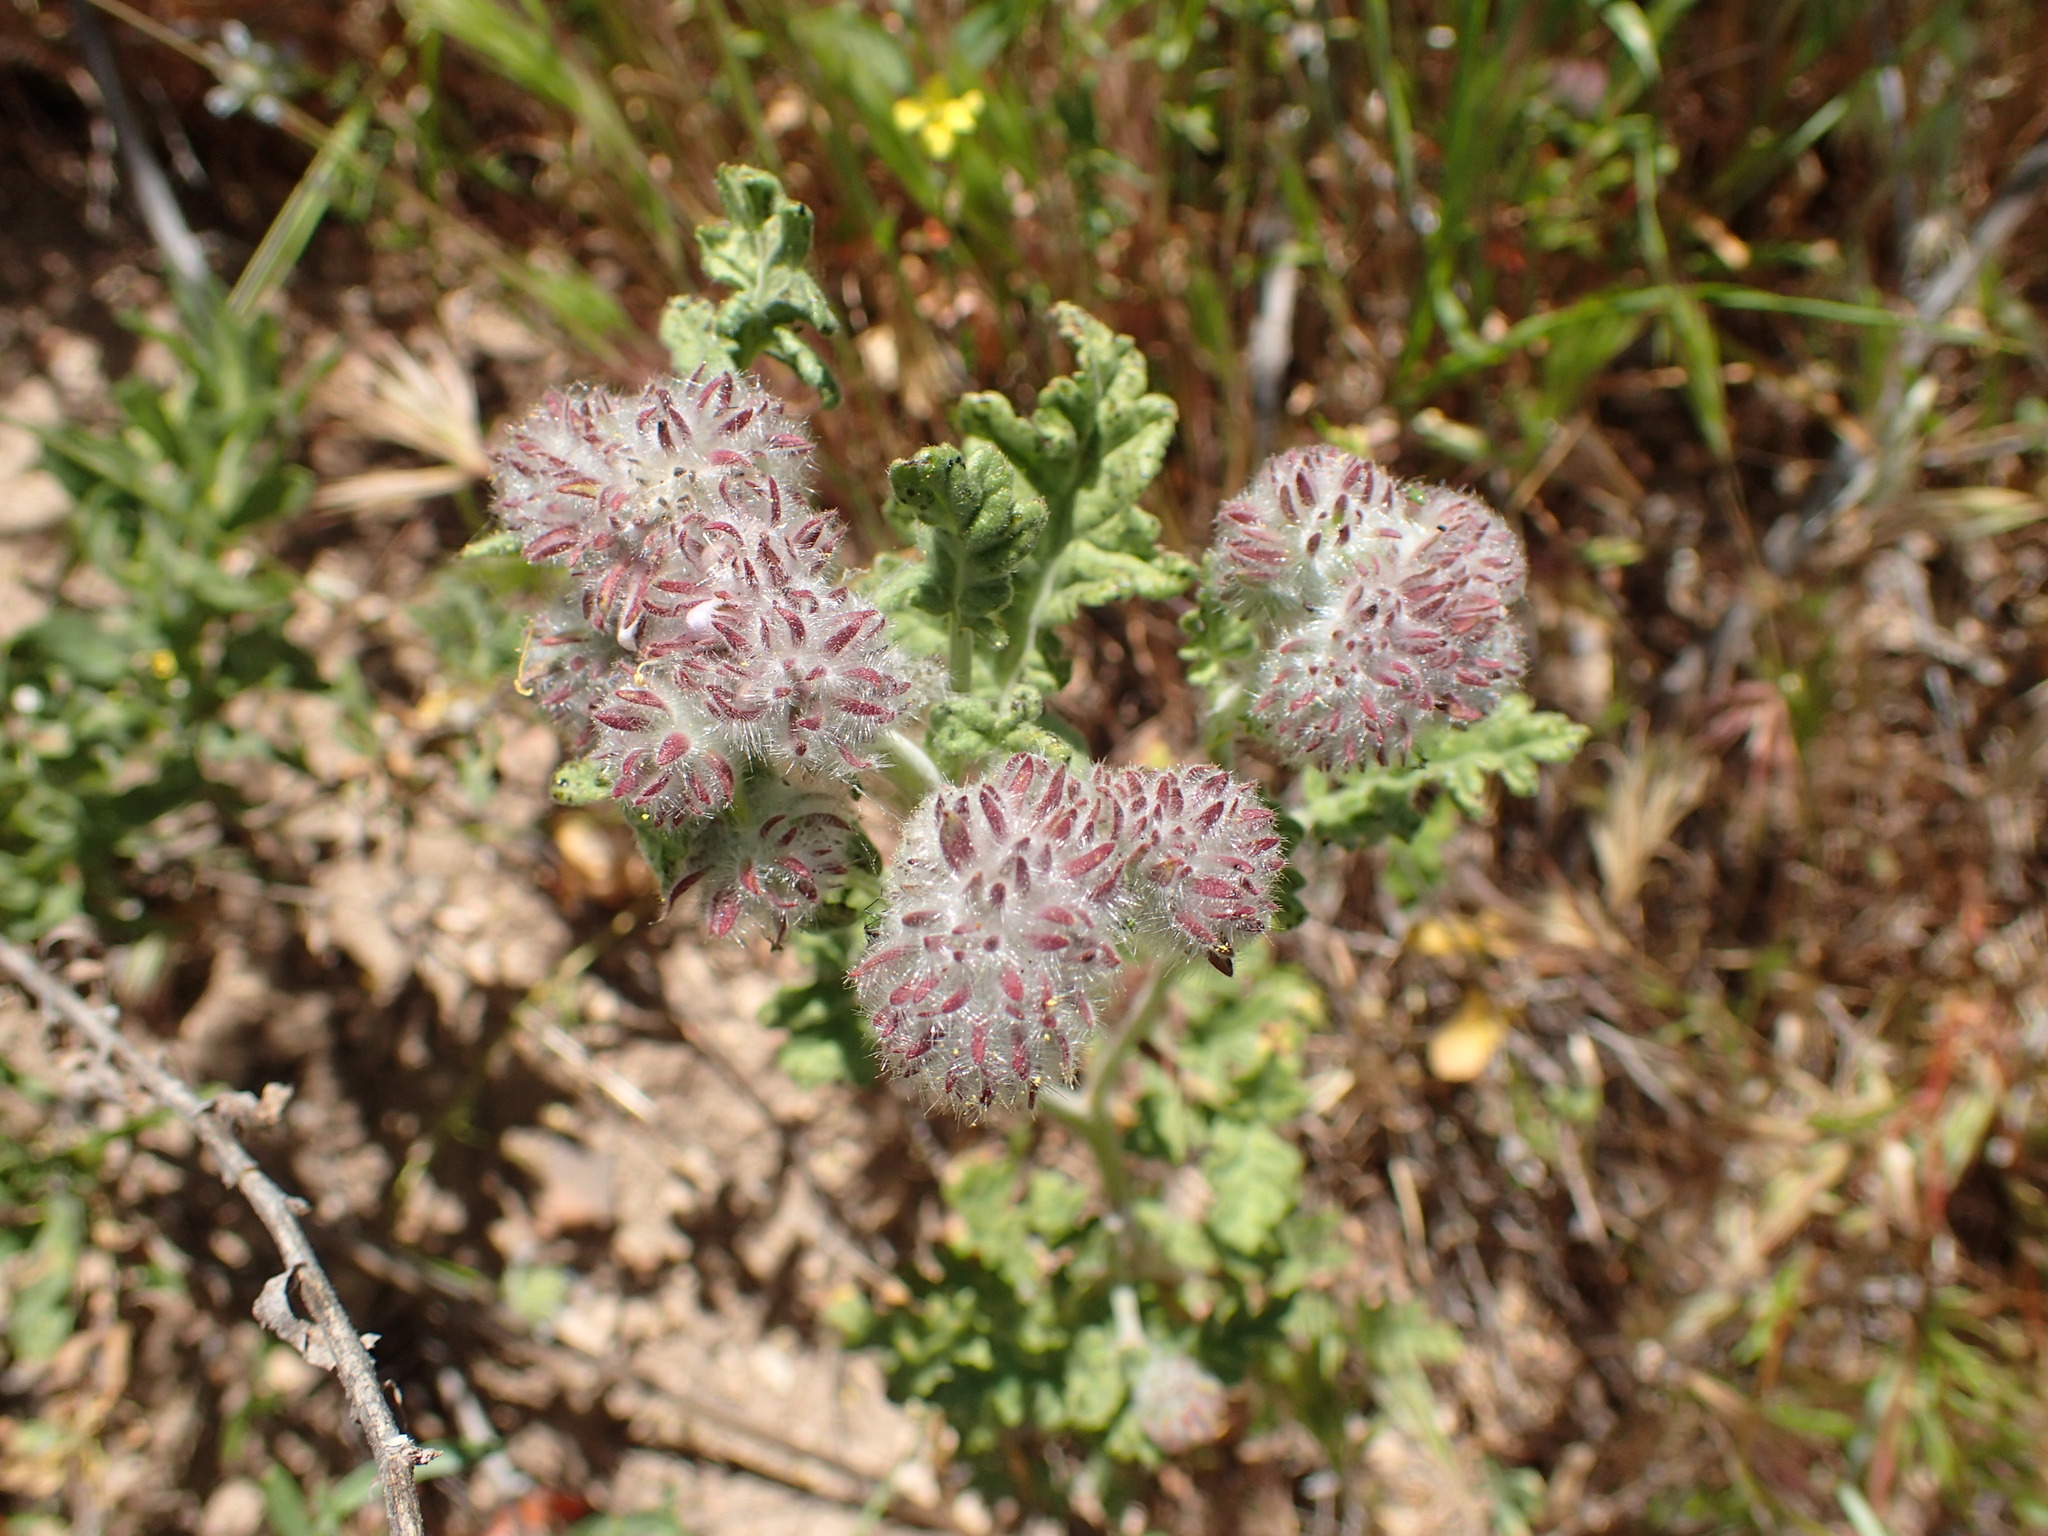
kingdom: Plantae
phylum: Tracheophyta
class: Magnoliopsida
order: Boraginales
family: Hydrophyllaceae
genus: Phacelia
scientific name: Phacelia hubbyi
